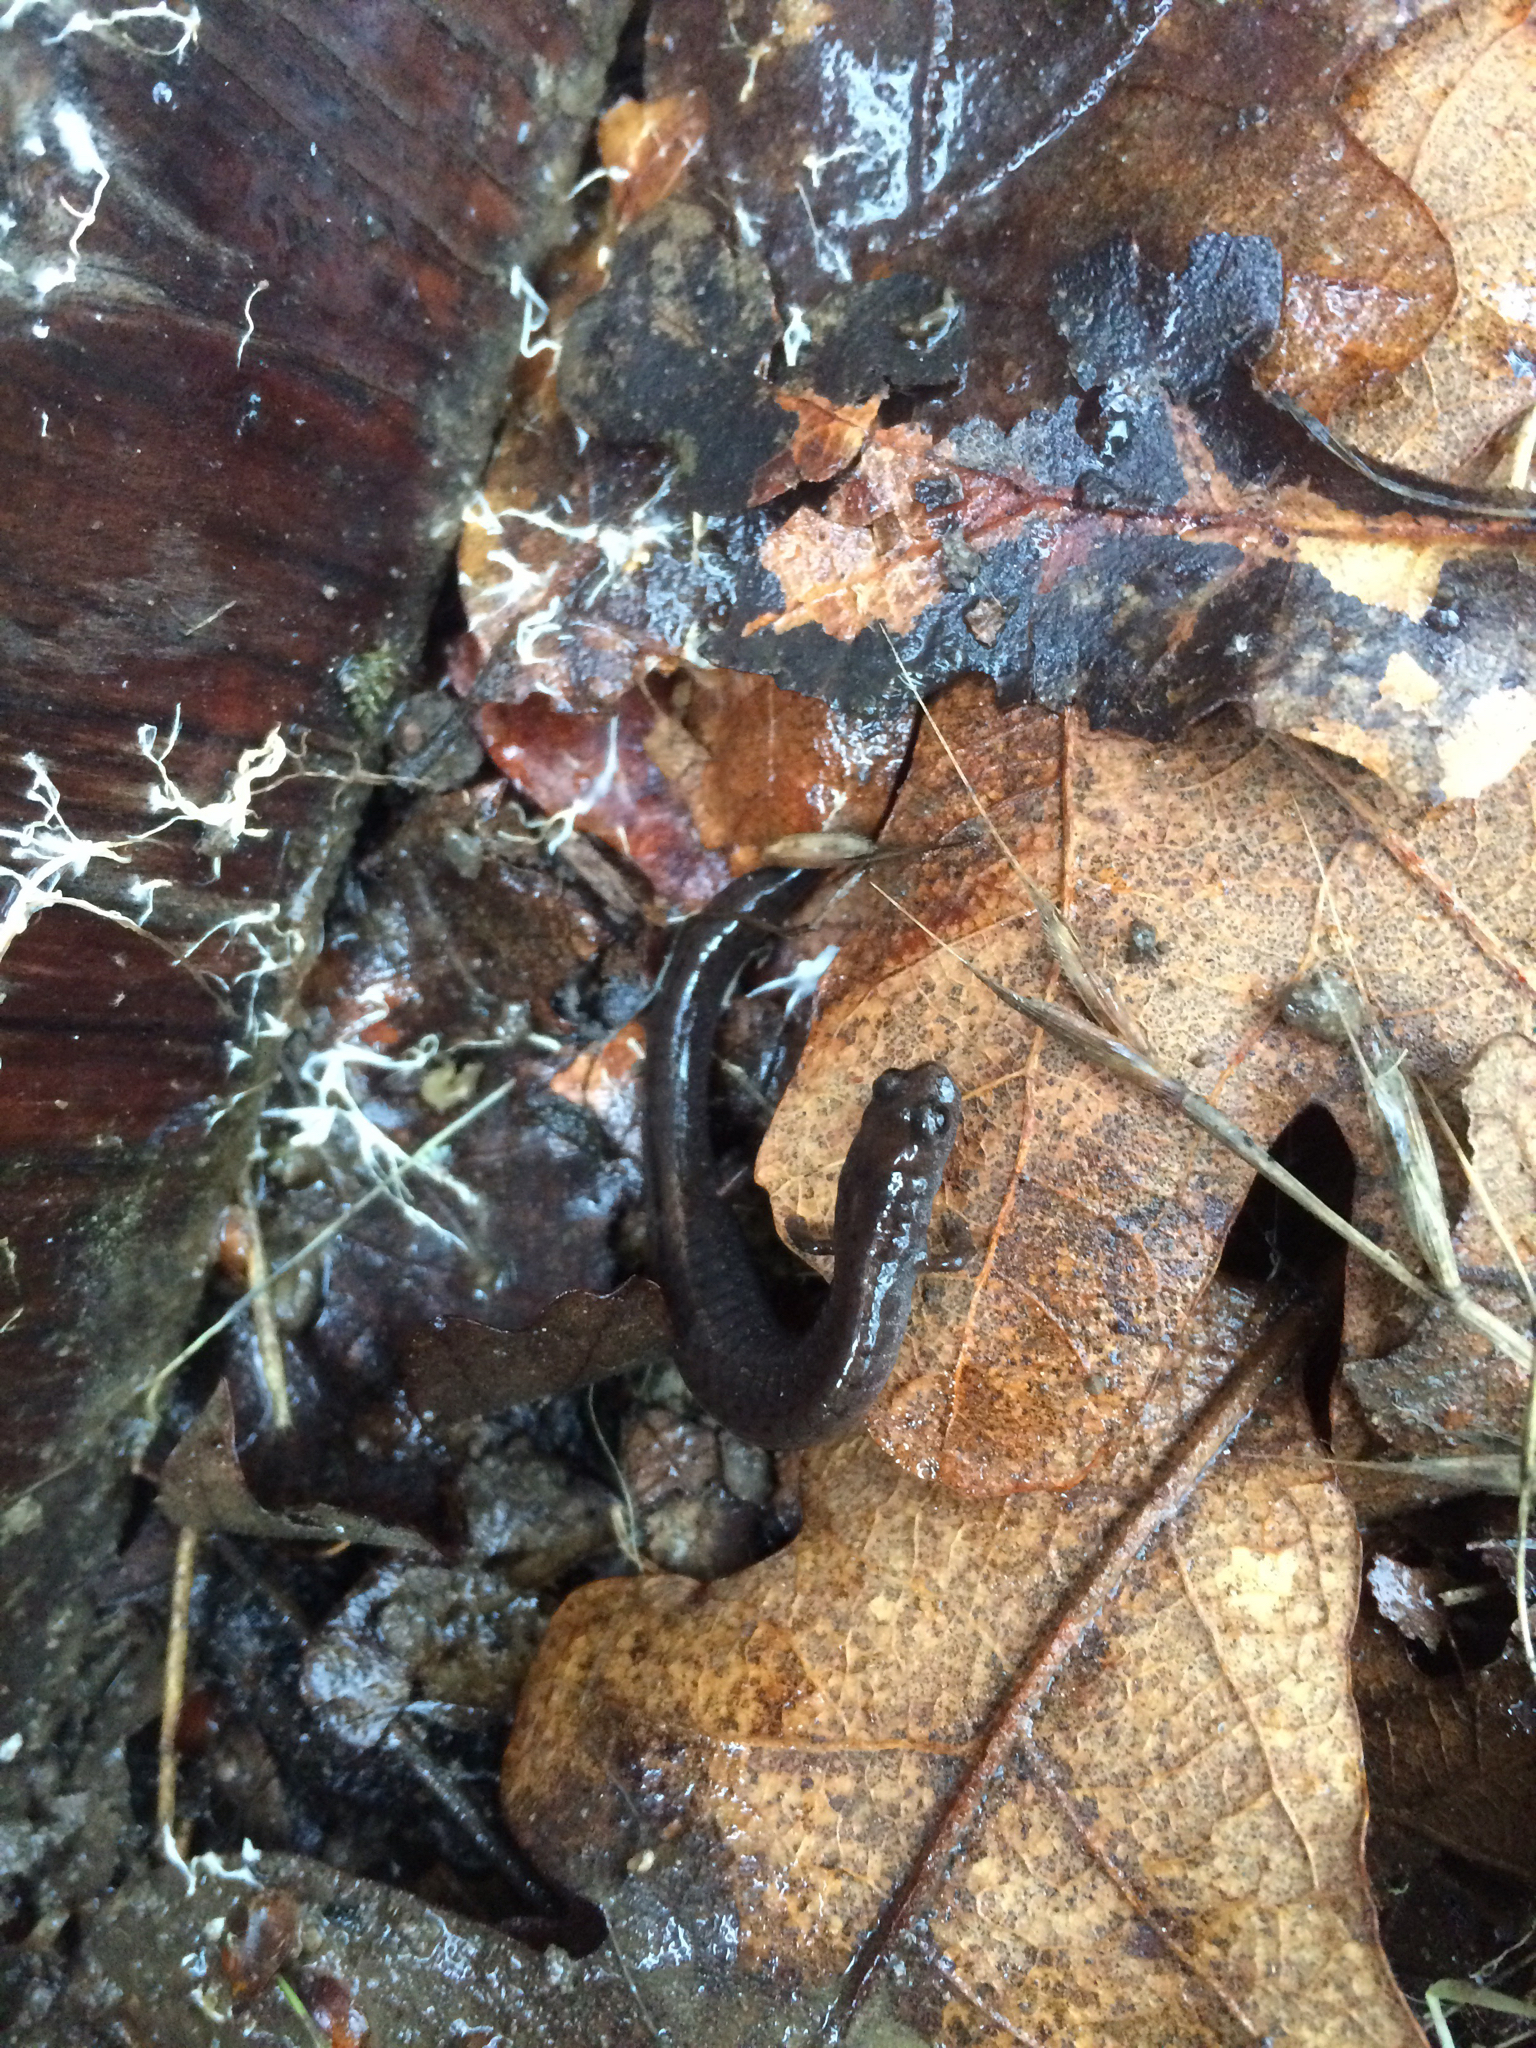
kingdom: Animalia
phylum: Chordata
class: Amphibia
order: Caudata
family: Plethodontidae
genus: Batrachoseps
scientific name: Batrachoseps attenuatus
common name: California slender salamander
